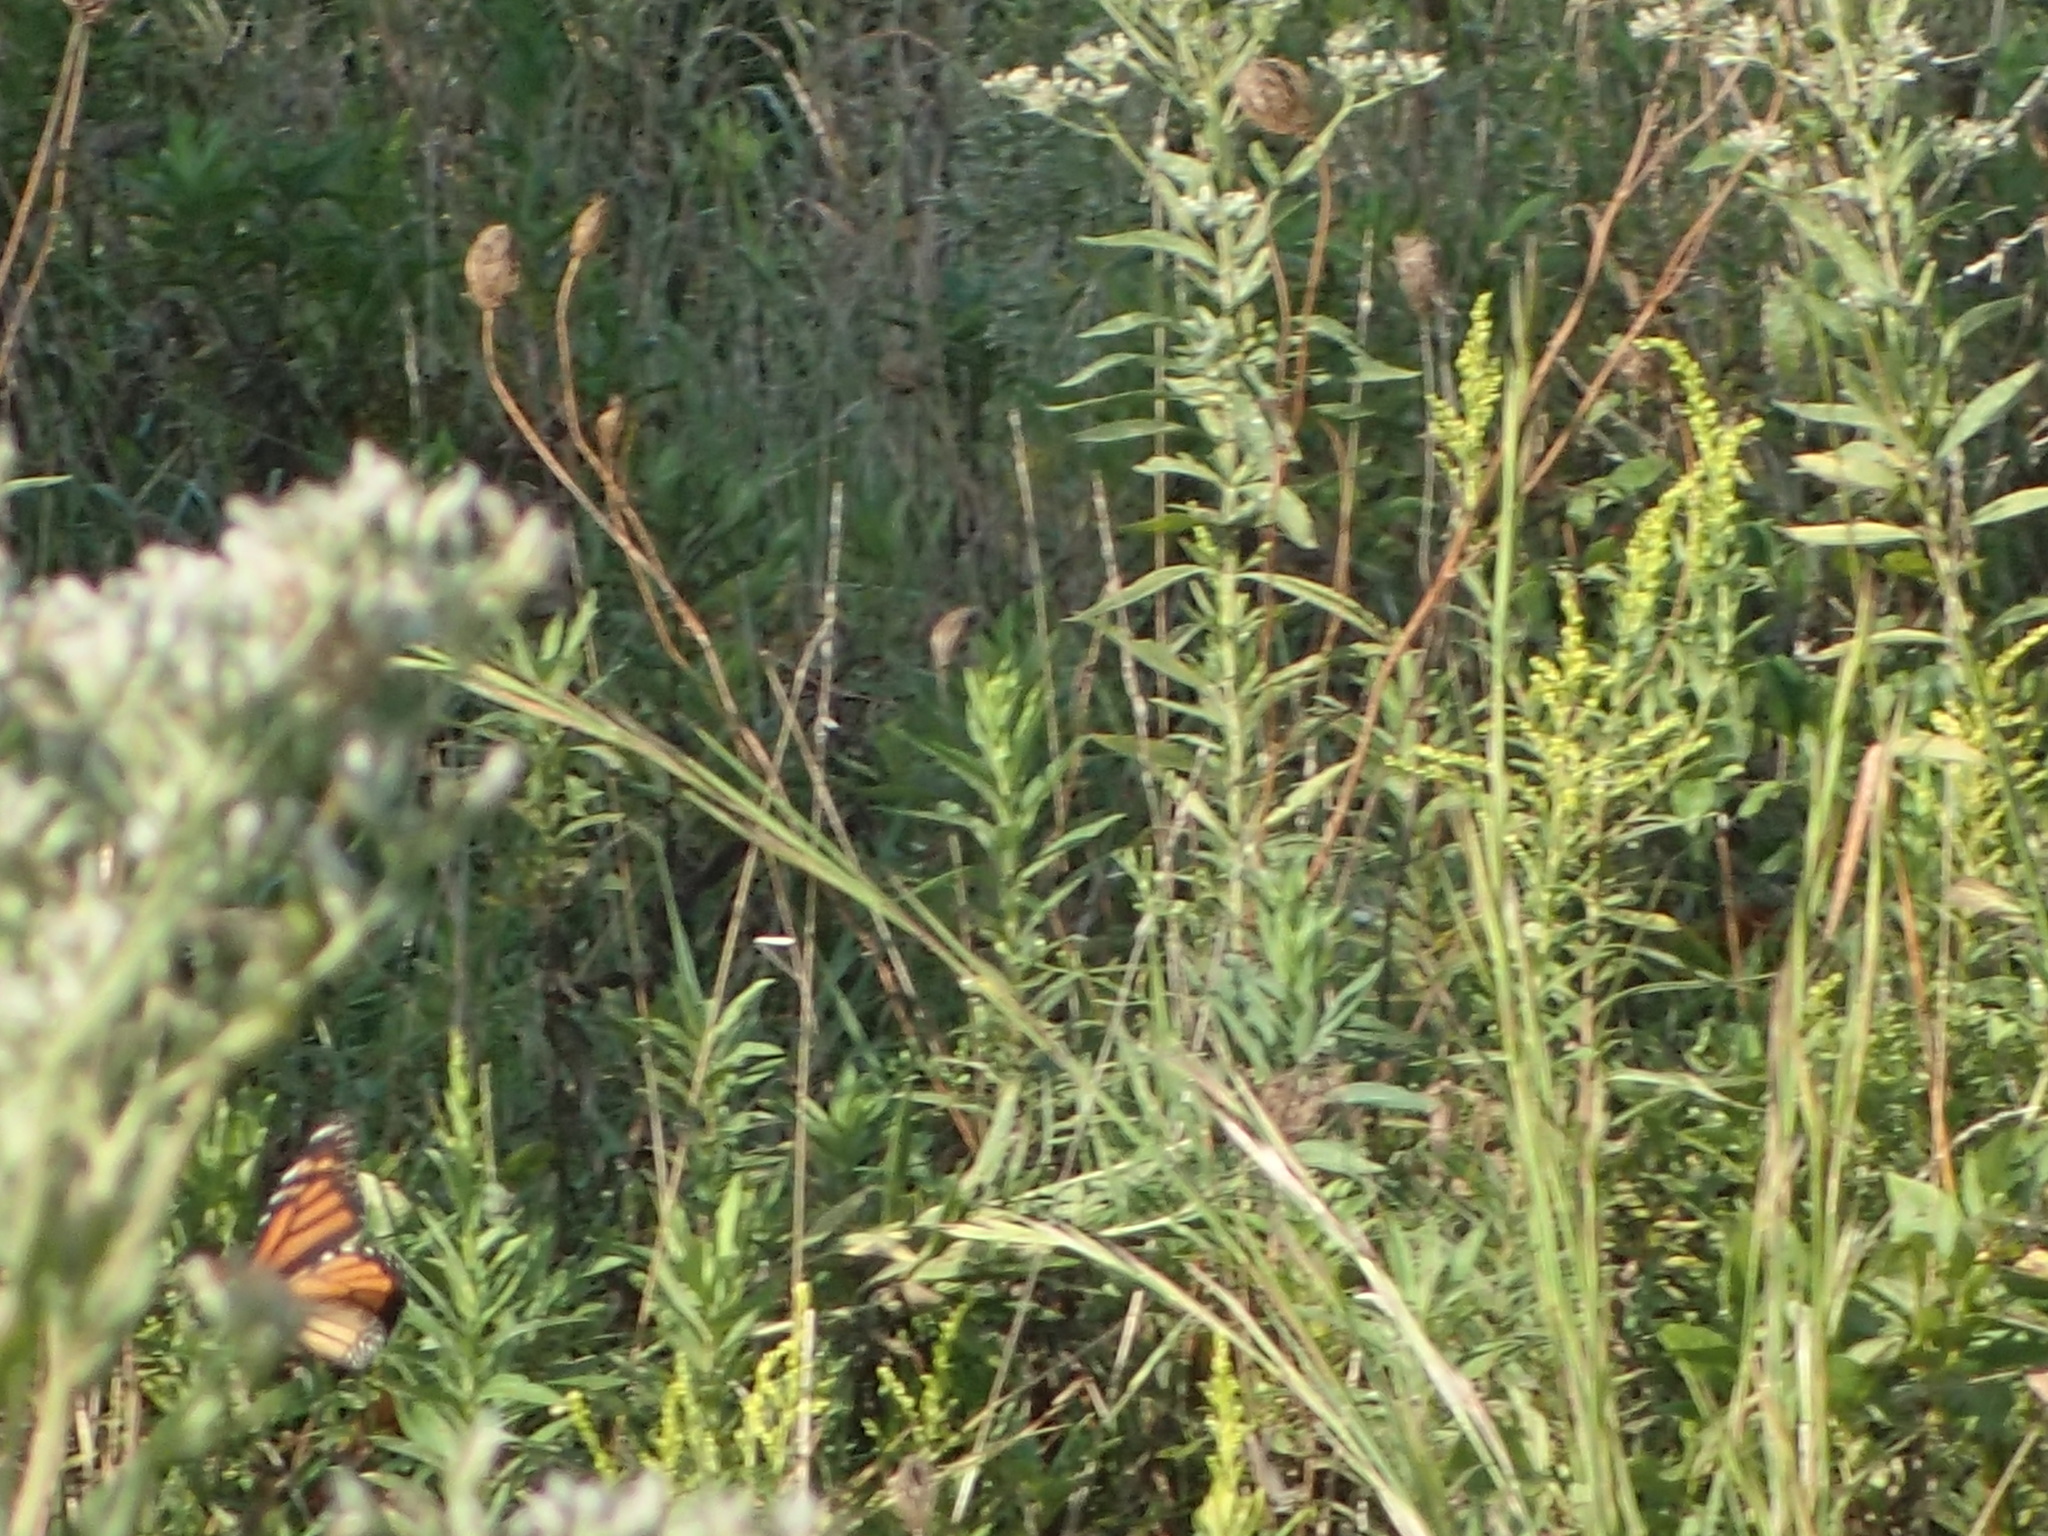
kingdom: Animalia
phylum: Arthropoda
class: Insecta
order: Lepidoptera
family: Nymphalidae
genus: Danaus
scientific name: Danaus plexippus
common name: Monarch
